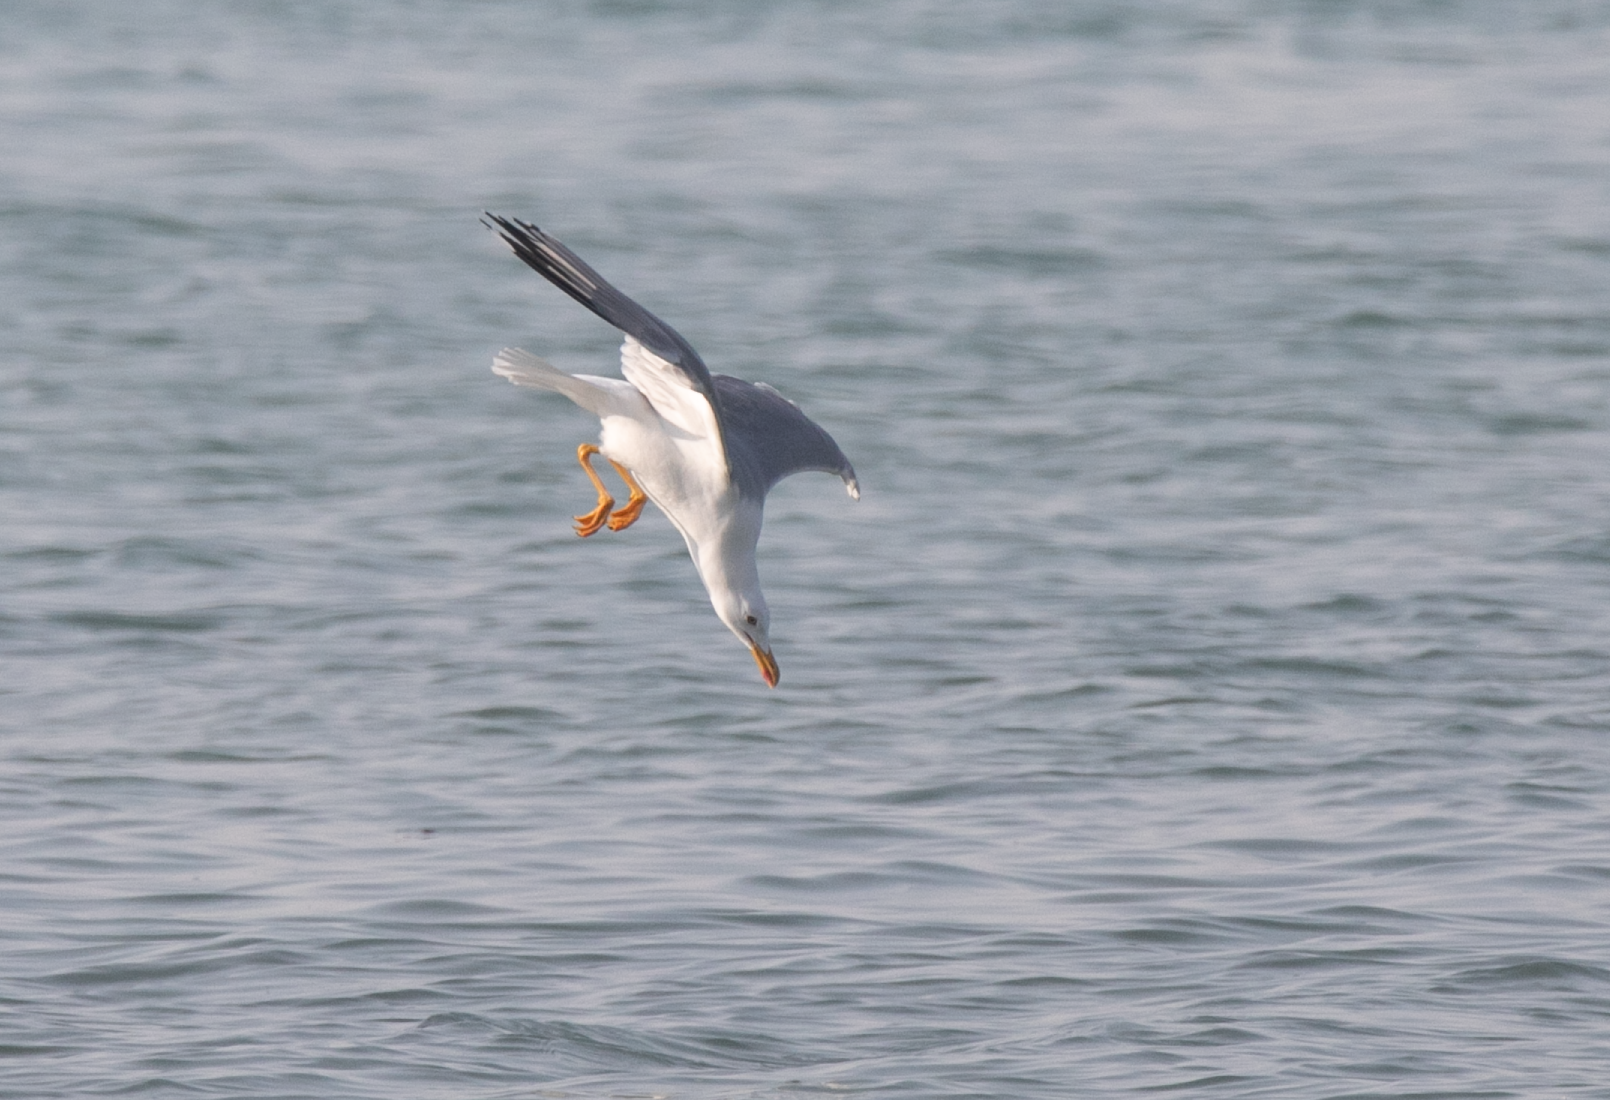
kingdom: Animalia
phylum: Chordata
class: Aves
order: Charadriiformes
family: Laridae
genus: Larus
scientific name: Larus michahellis
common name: Yellow-legged gull
